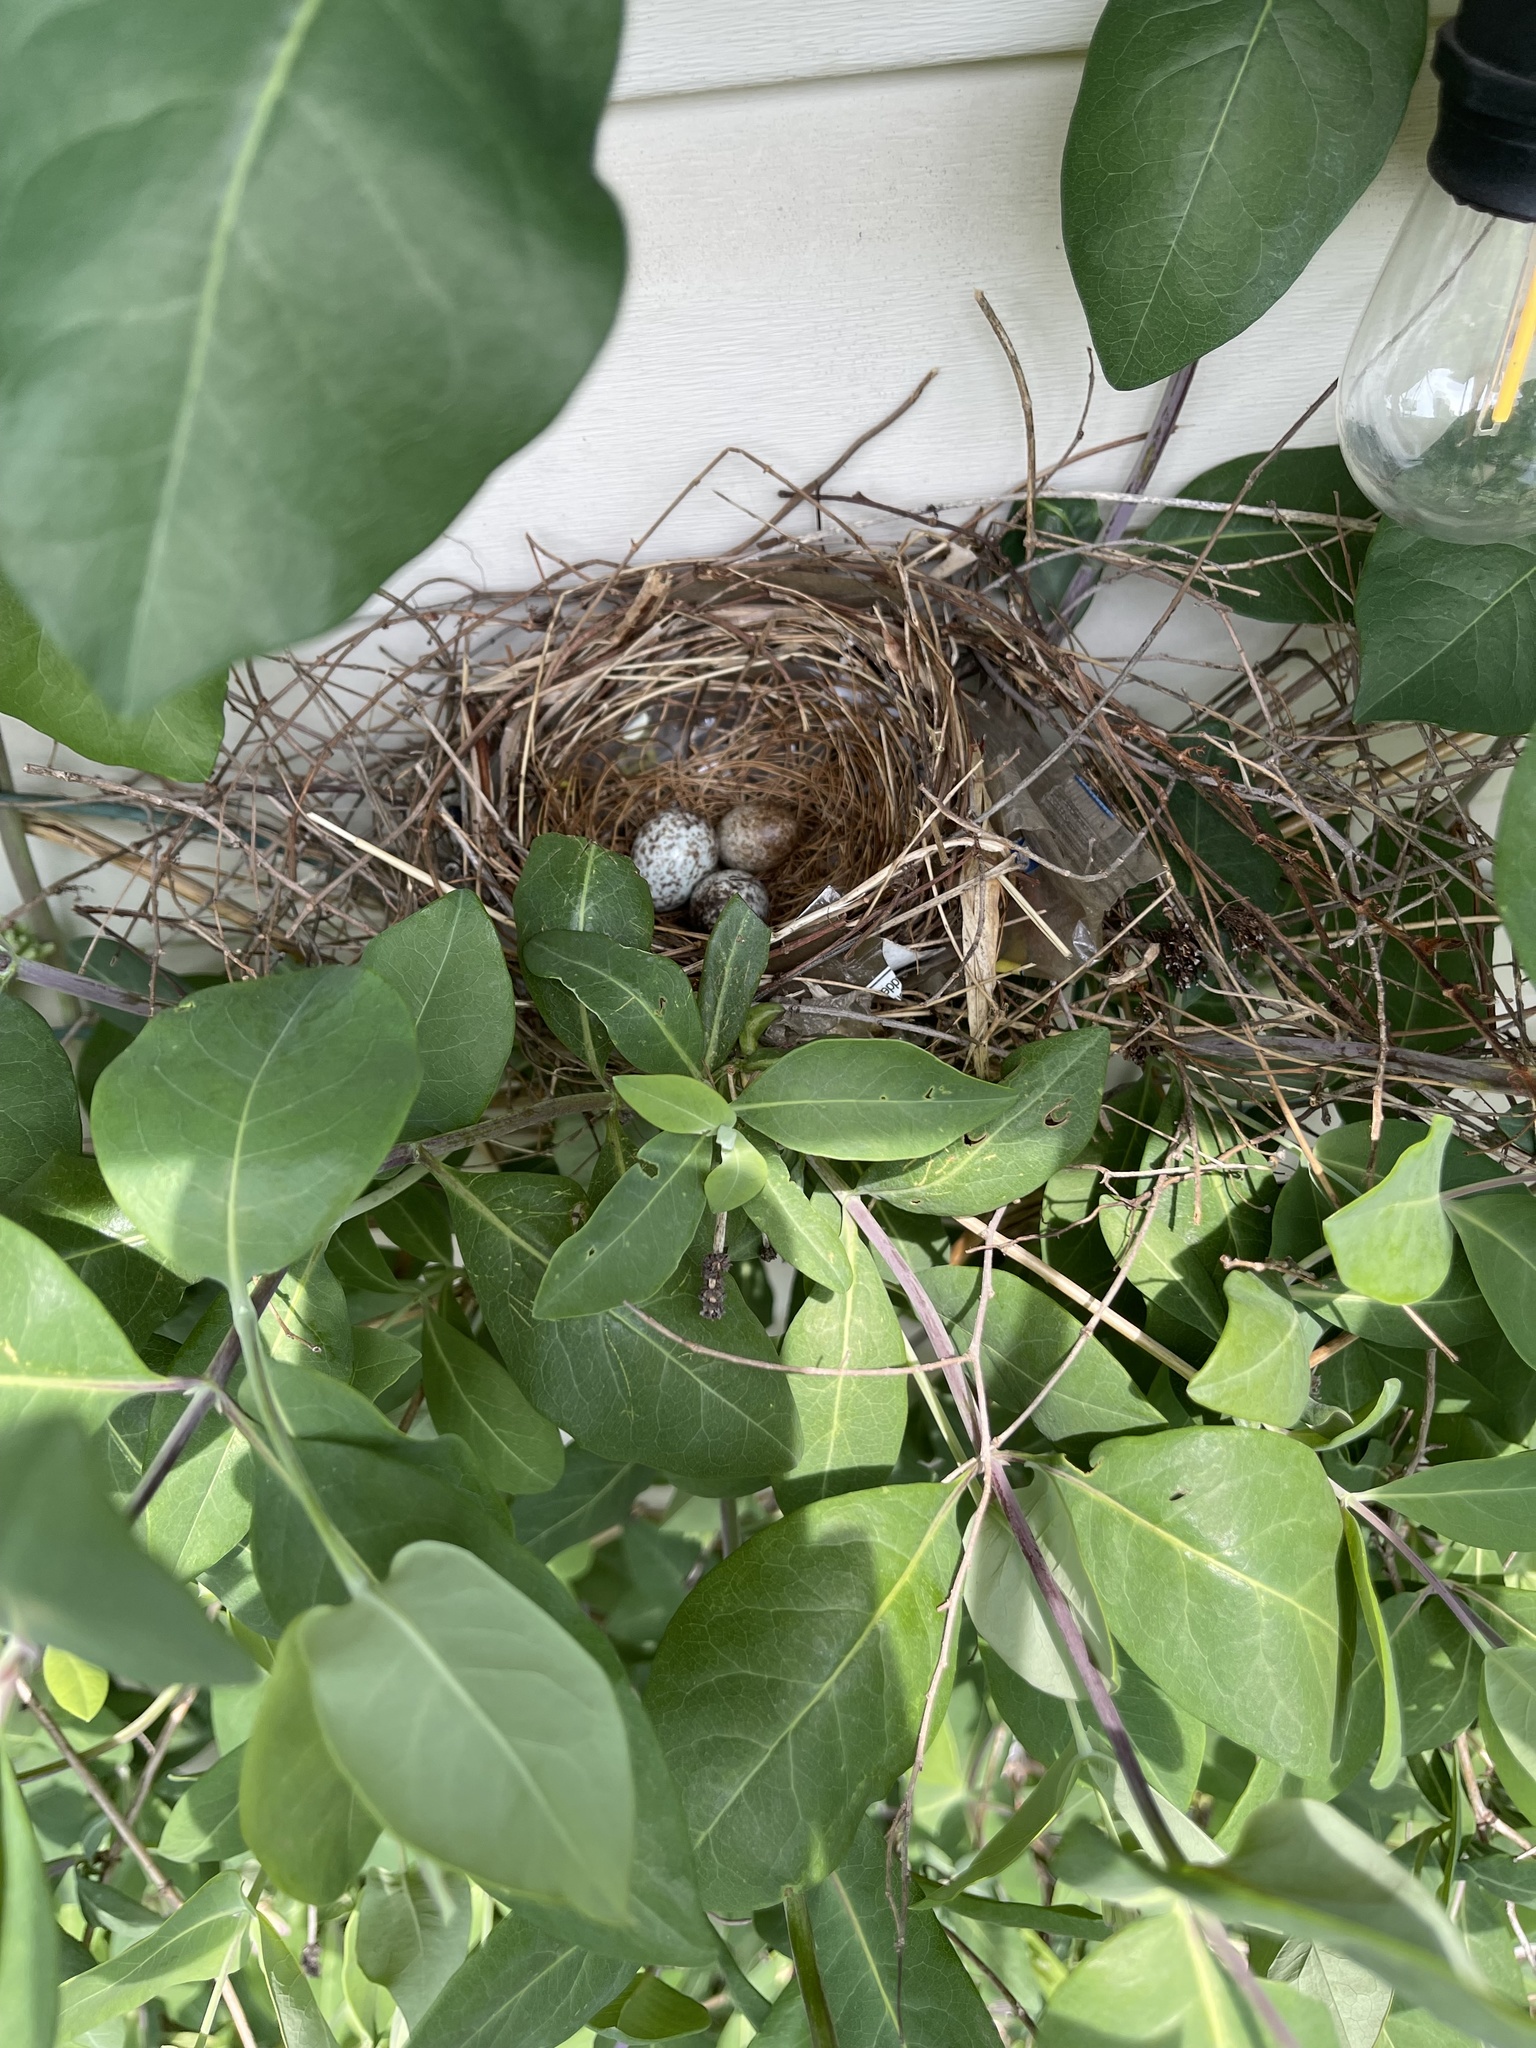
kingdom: Animalia
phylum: Chordata
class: Aves
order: Passeriformes
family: Cardinalidae
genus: Cardinalis
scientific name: Cardinalis cardinalis
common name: Northern cardinal
